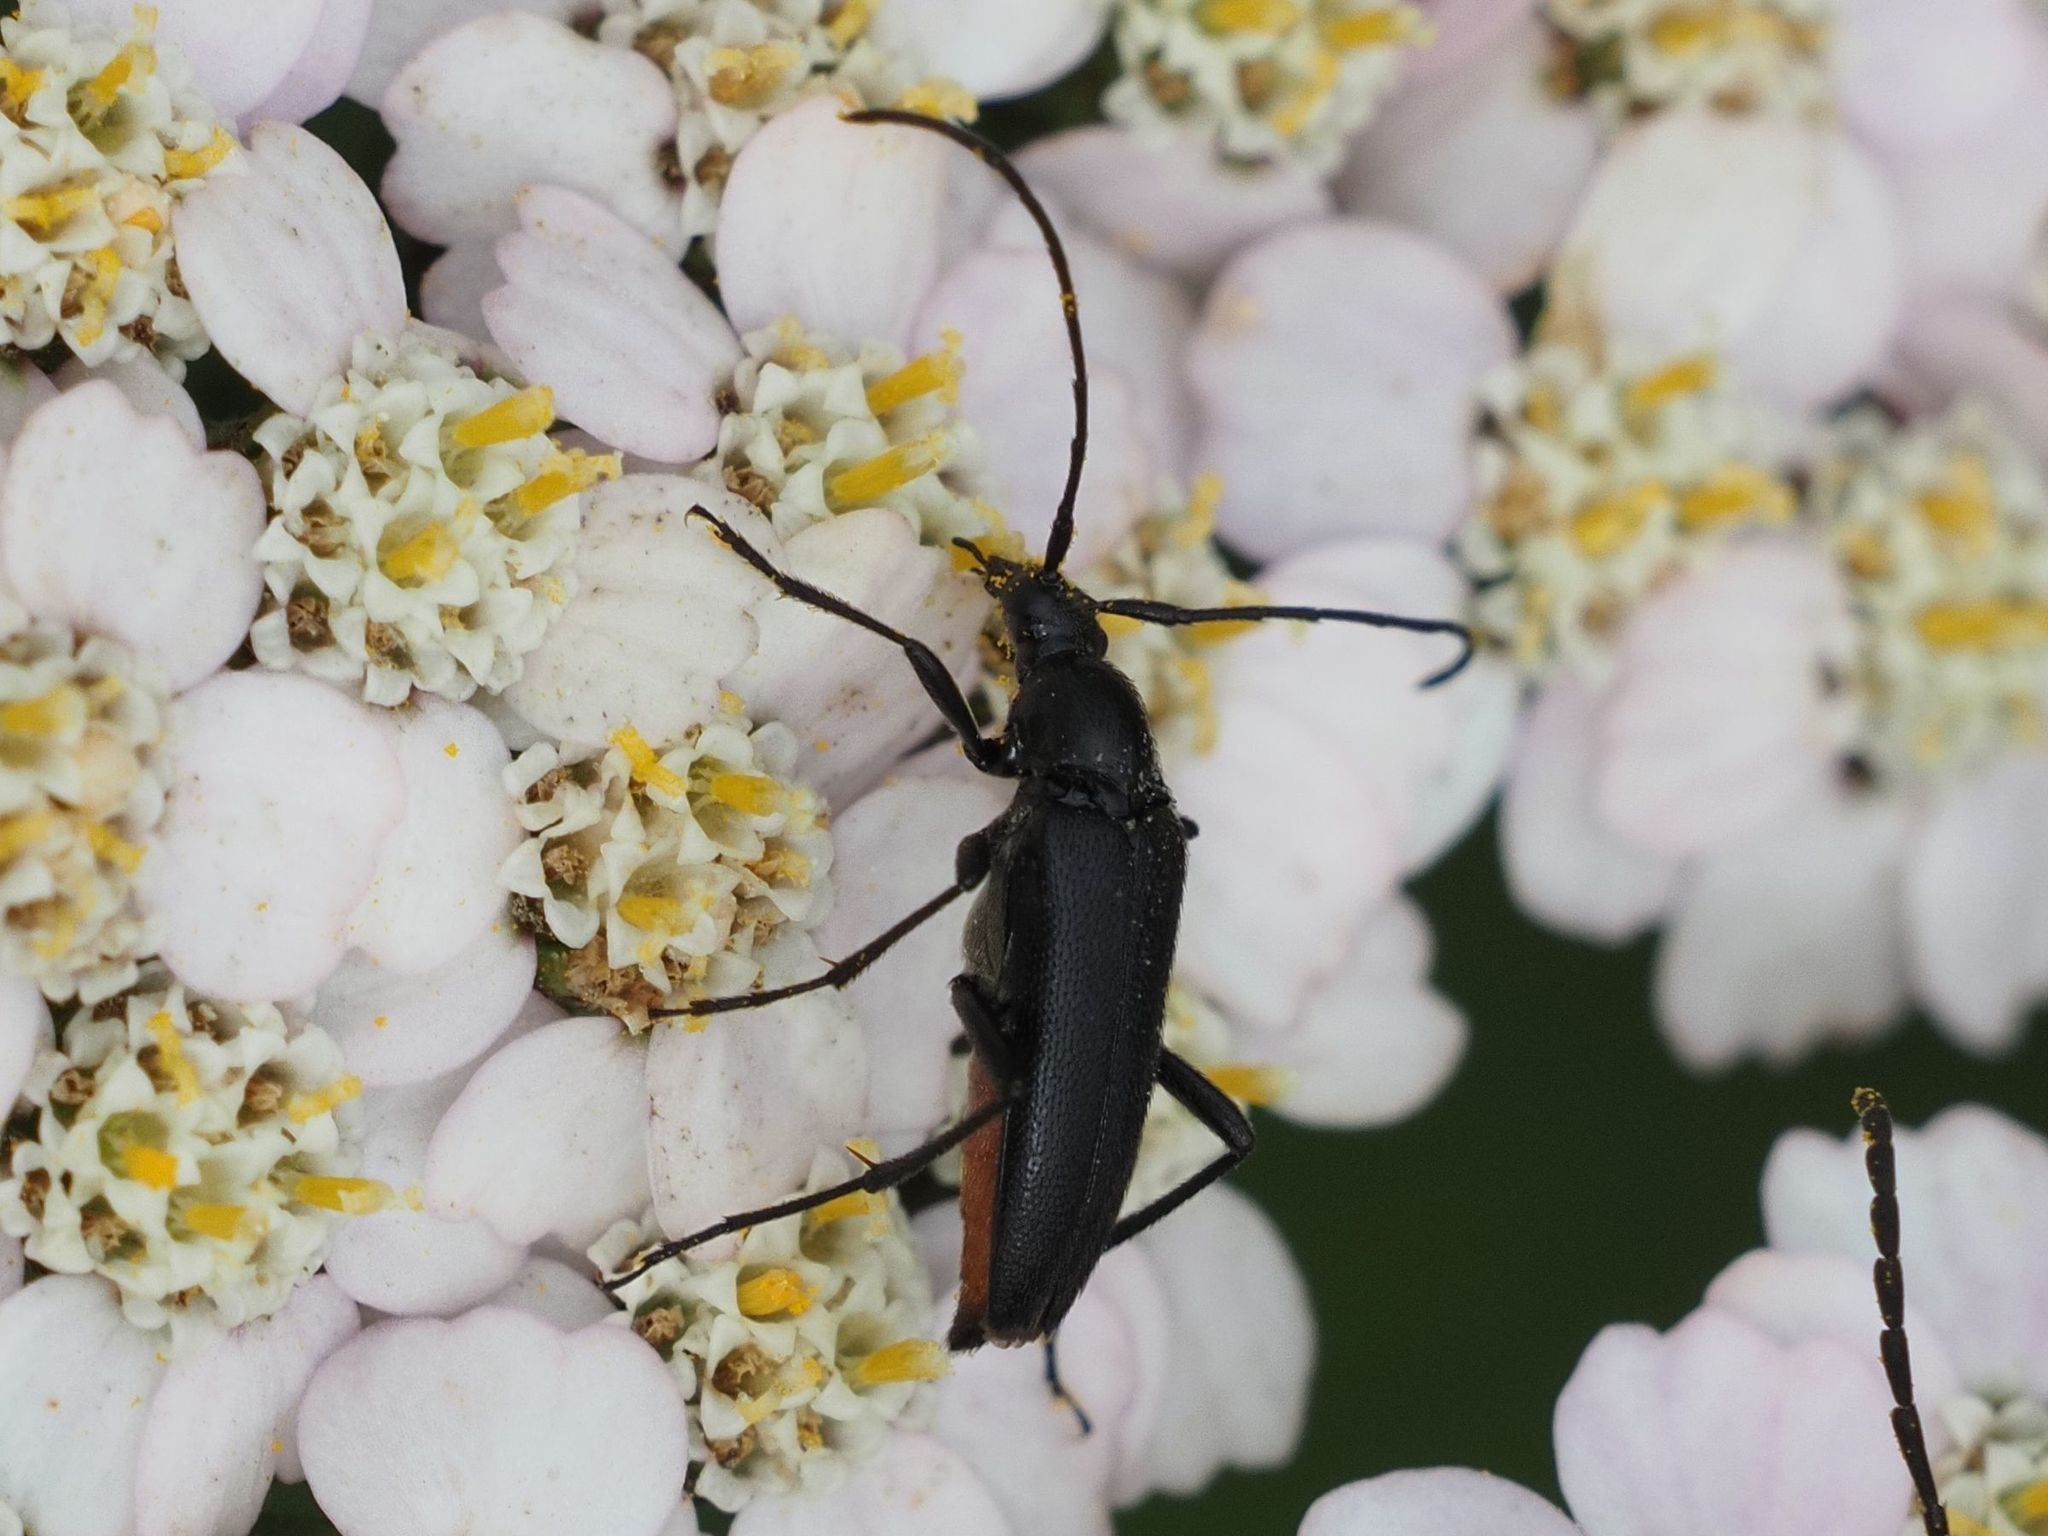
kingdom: Animalia
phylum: Arthropoda
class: Insecta
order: Coleoptera
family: Cerambycidae
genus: Stenurella
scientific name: Stenurella nigra
